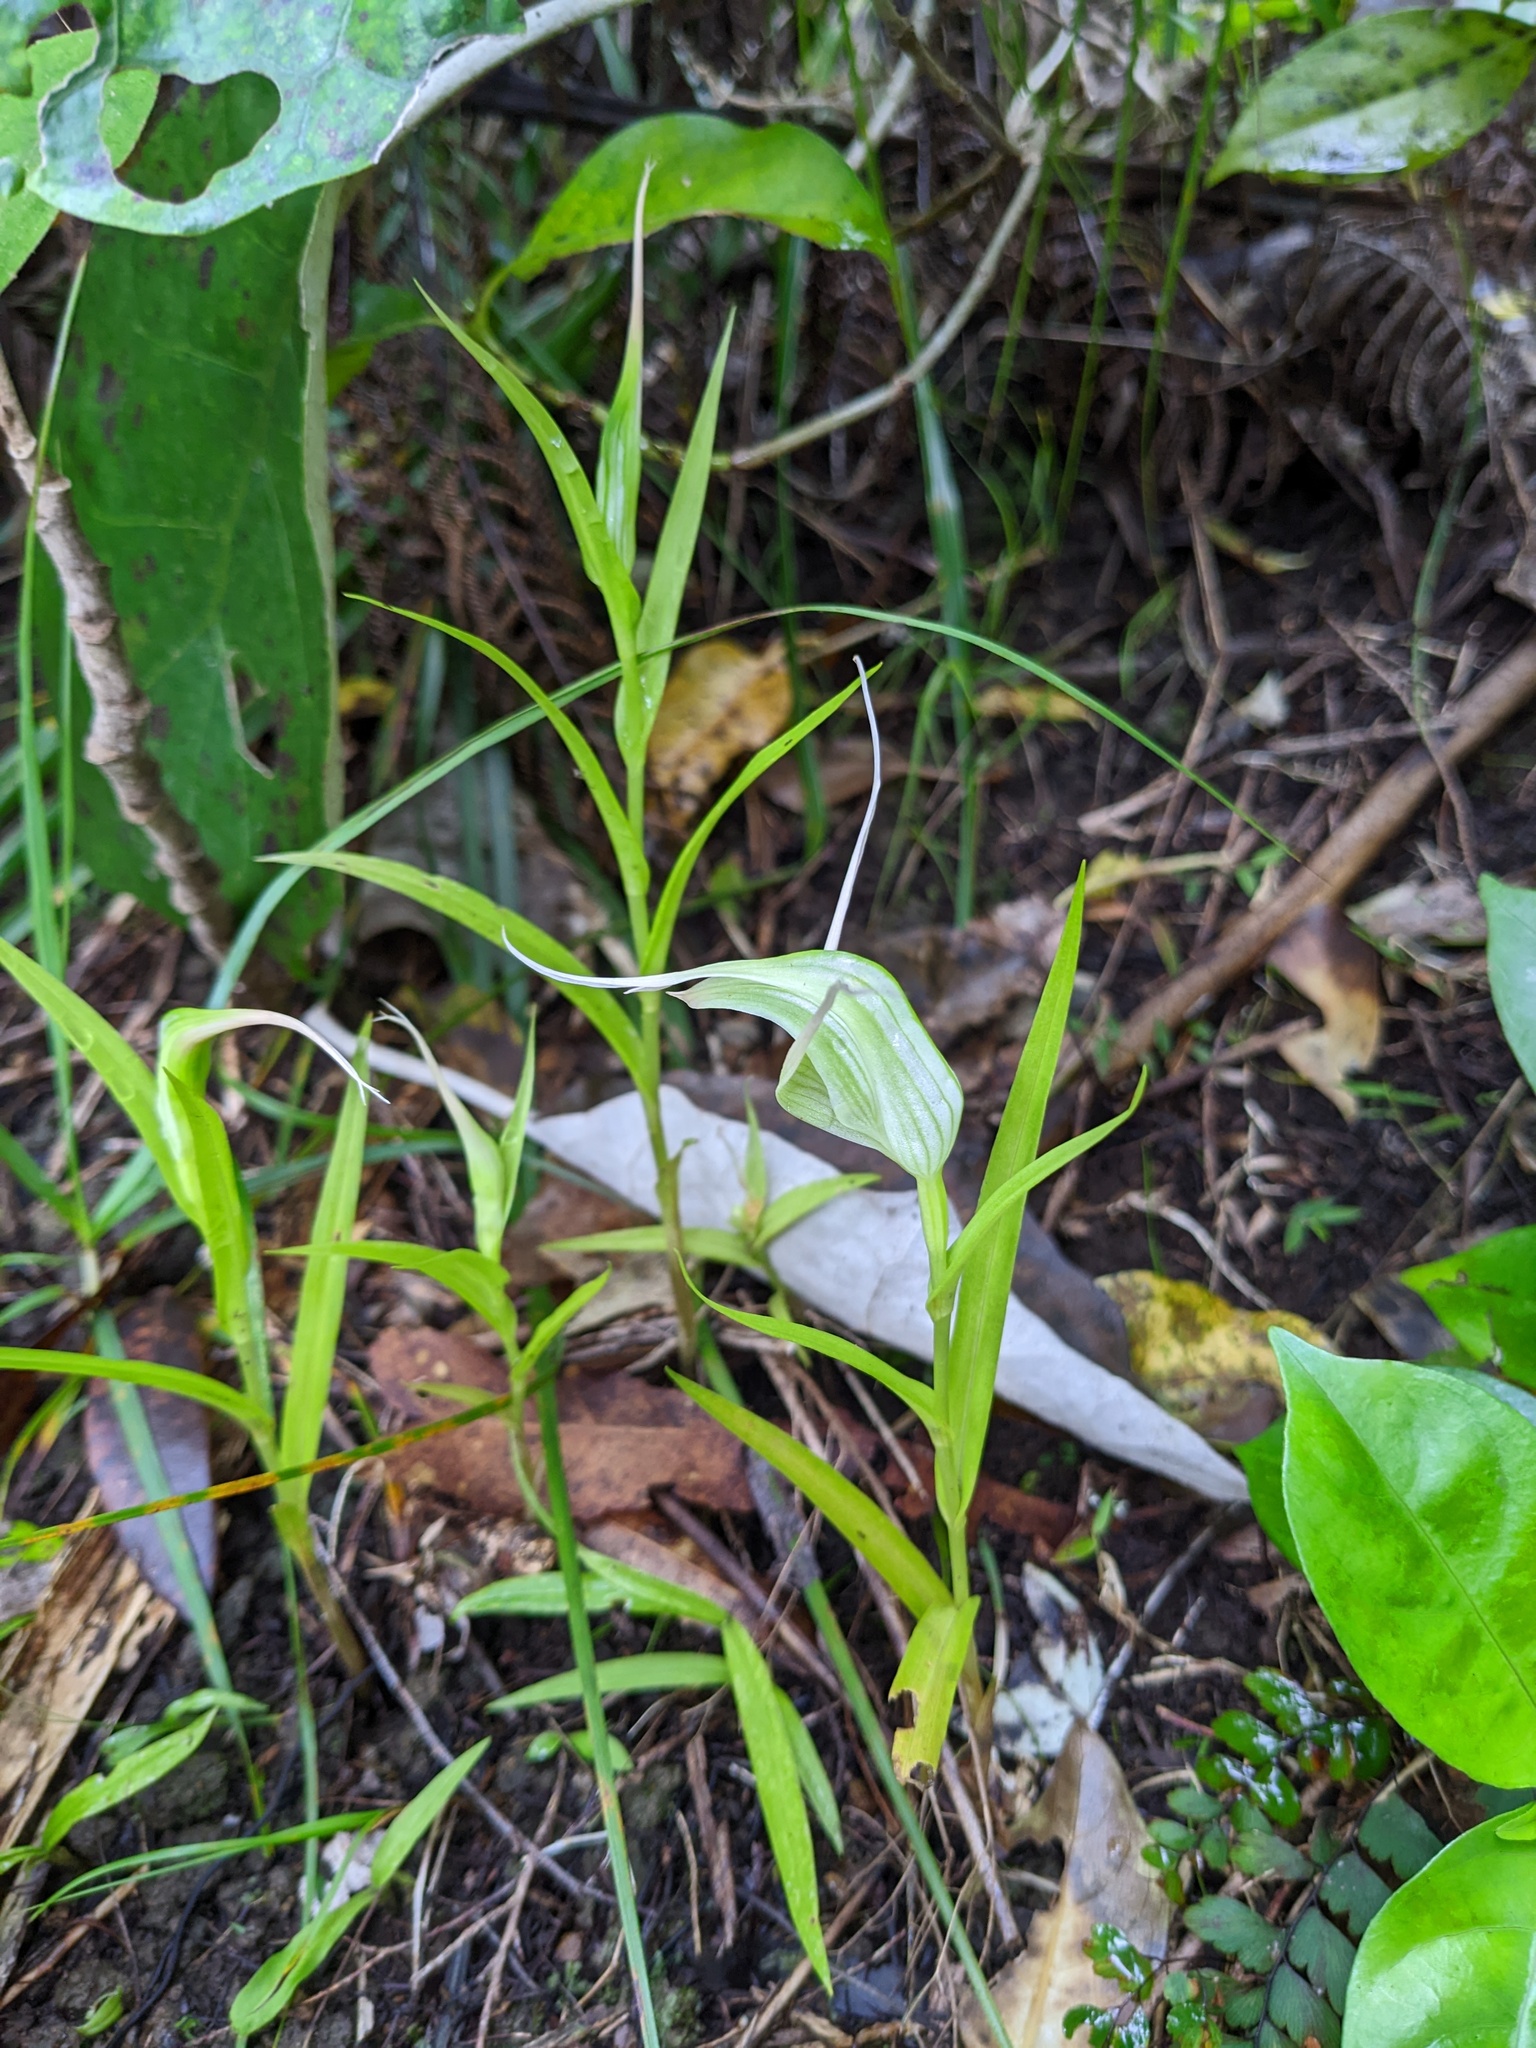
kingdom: Plantae
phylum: Tracheophyta
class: Liliopsida
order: Asparagales
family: Orchidaceae
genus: Pterostylis
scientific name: Pterostylis banksii
